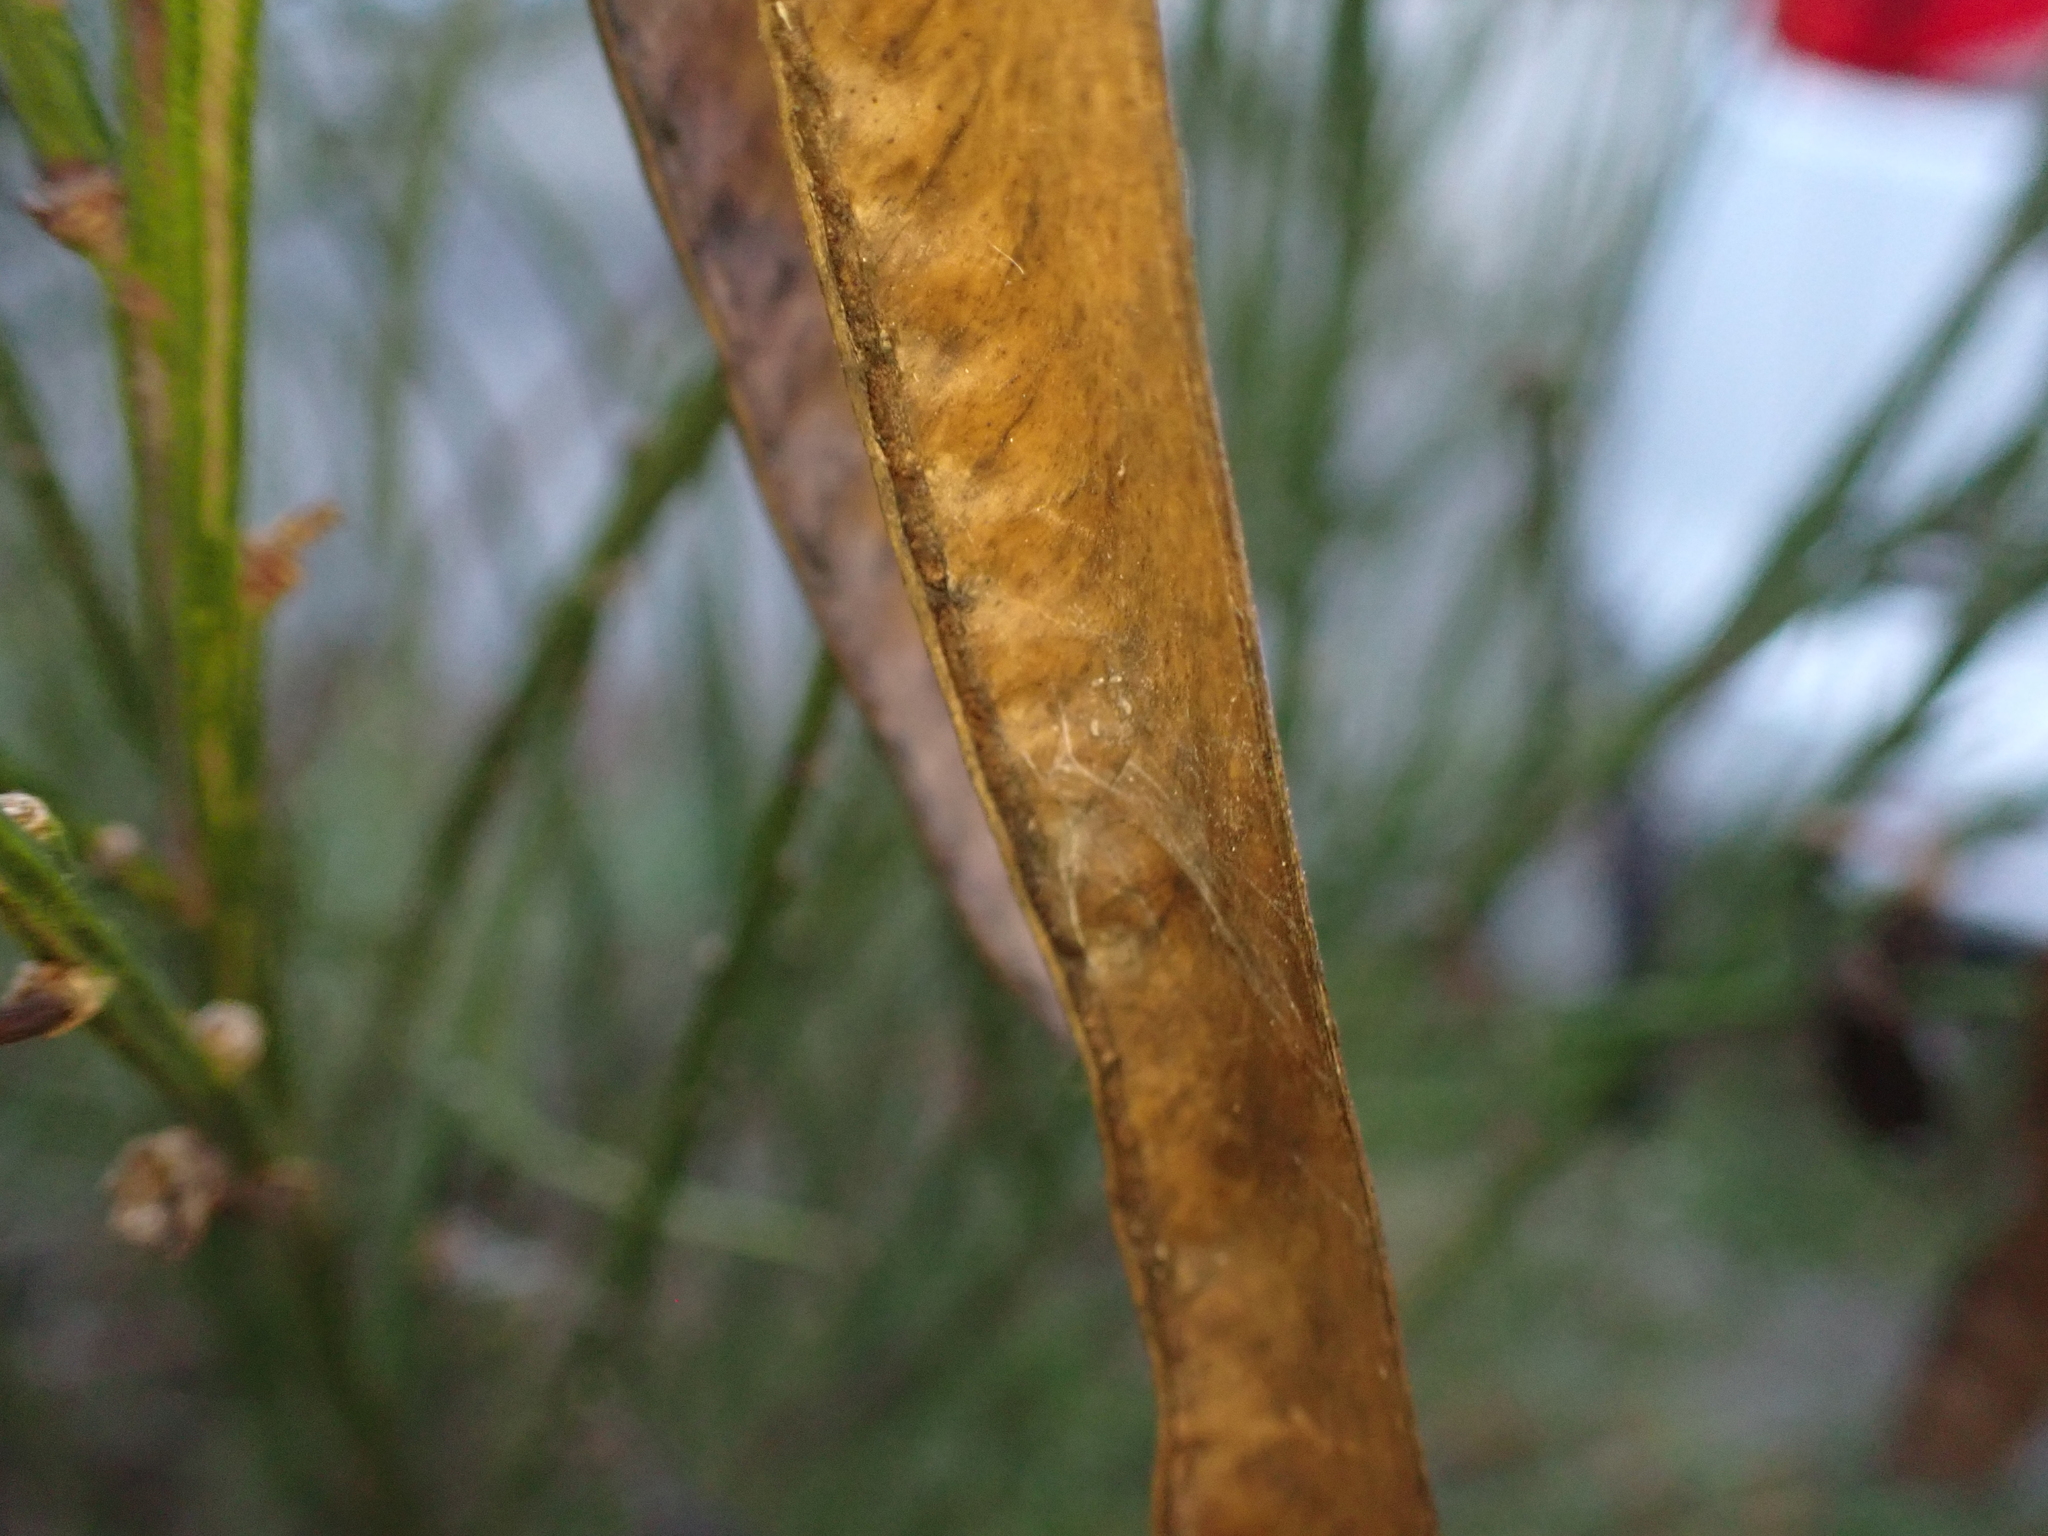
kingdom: Plantae
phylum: Tracheophyta
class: Magnoliopsida
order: Fabales
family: Fabaceae
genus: Cytisus
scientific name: Cytisus scoparius
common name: Scotch broom
